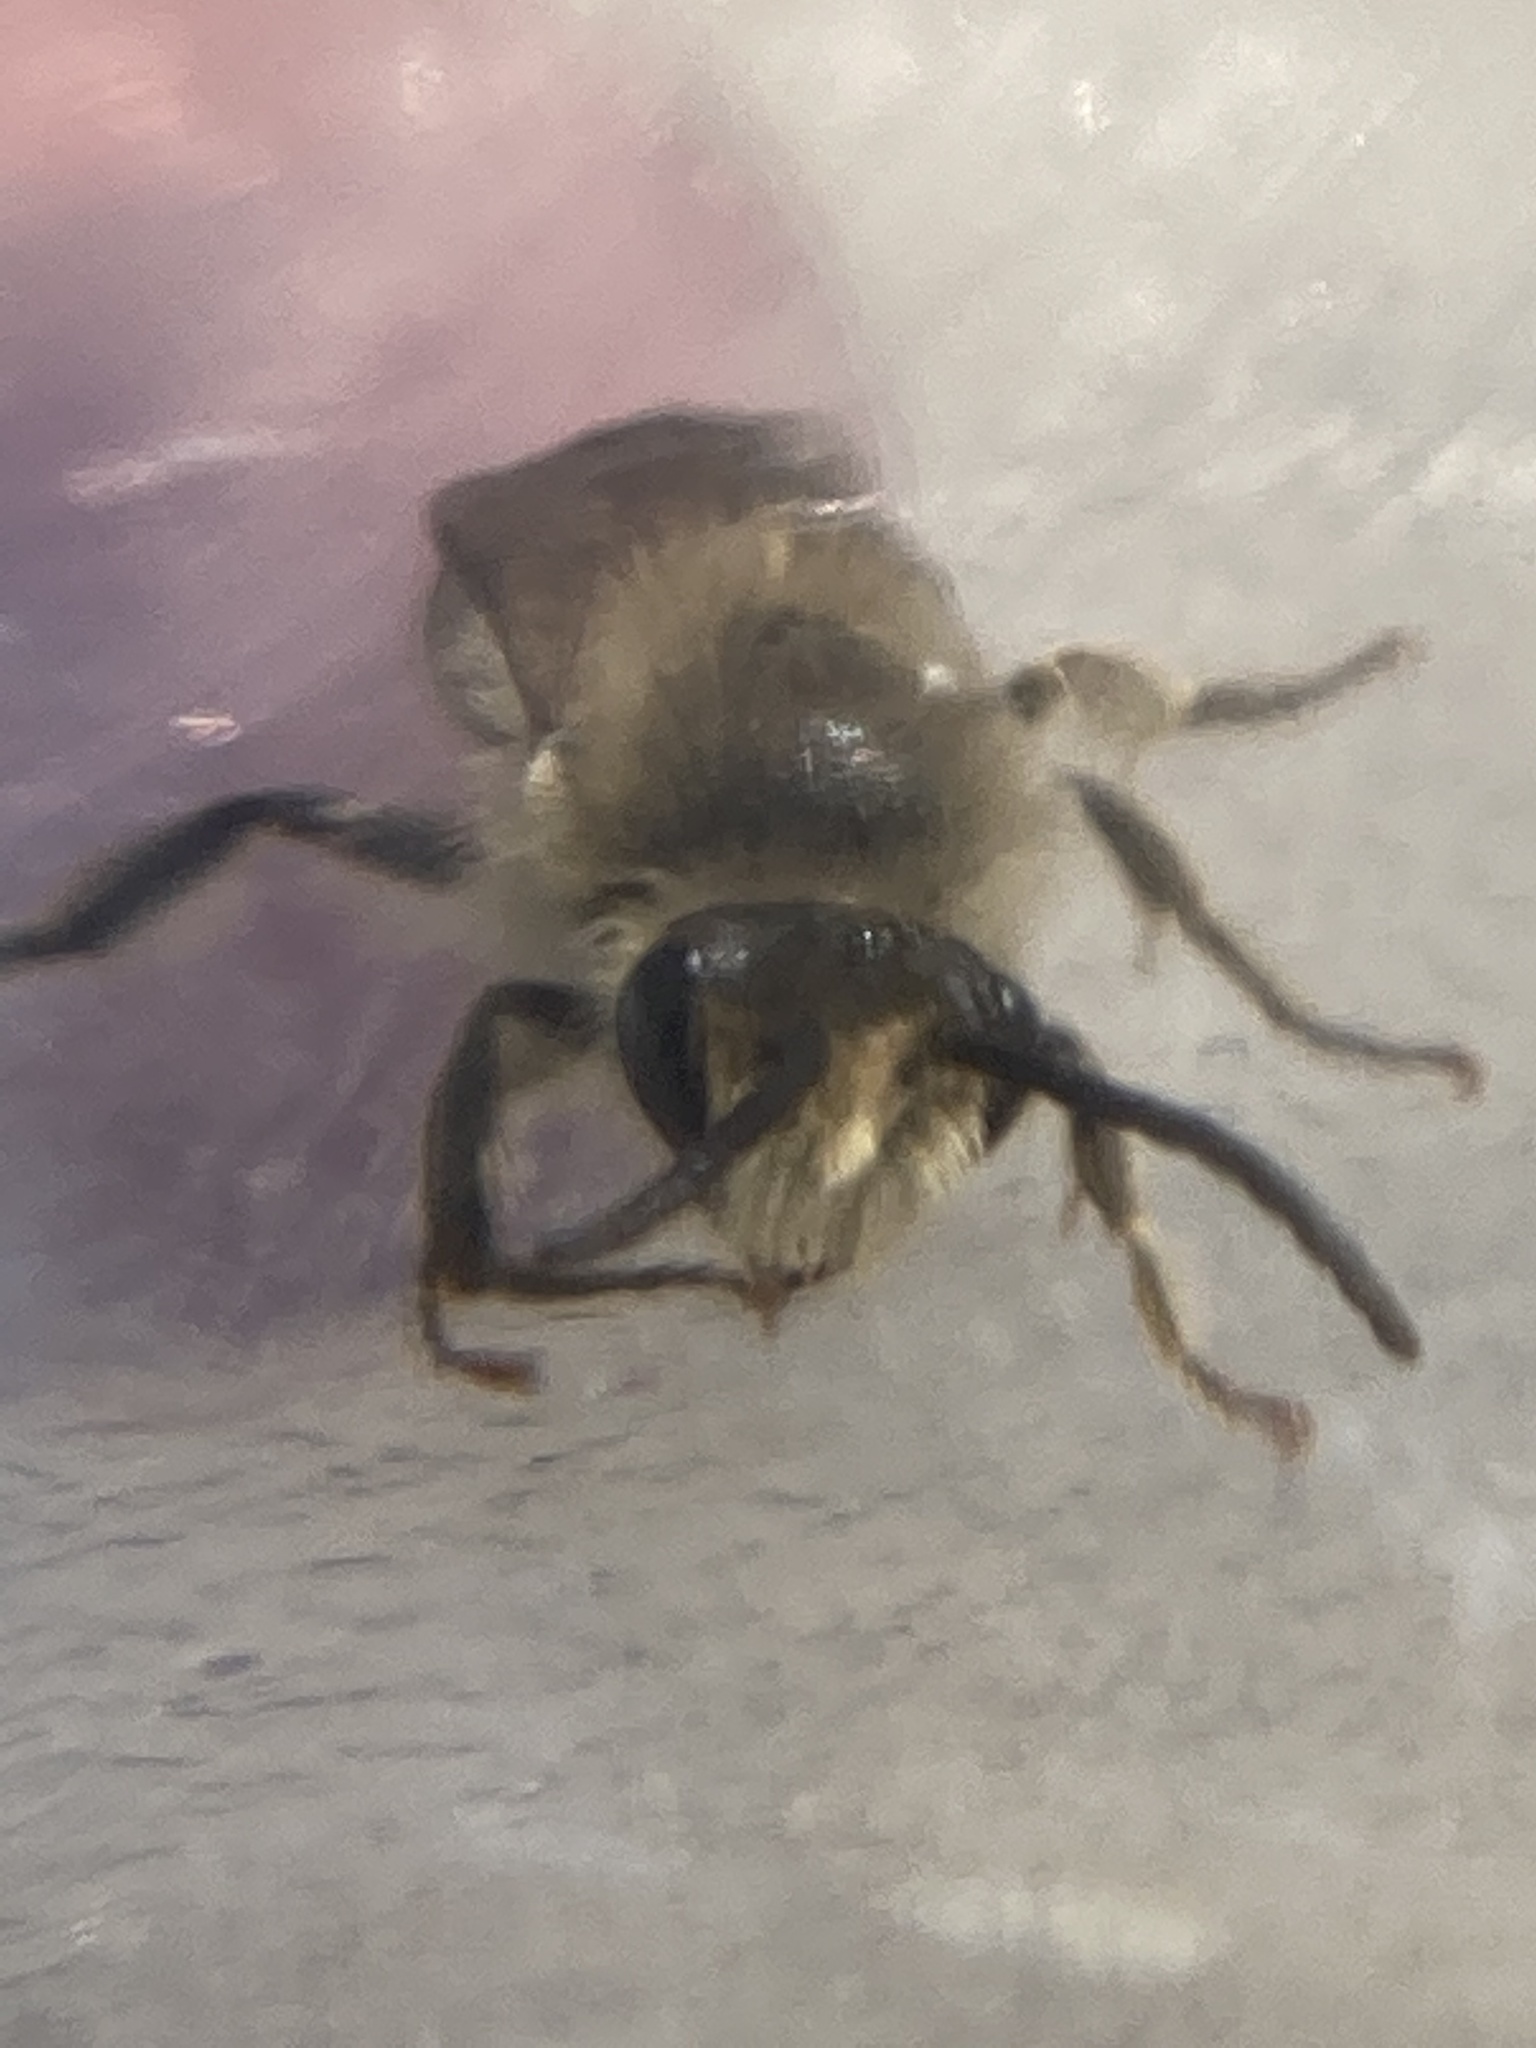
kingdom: Animalia
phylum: Arthropoda
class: Insecta
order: Hymenoptera
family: Colletidae
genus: Colletes
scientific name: Colletes inaequalis
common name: Unequal cellophane bee
